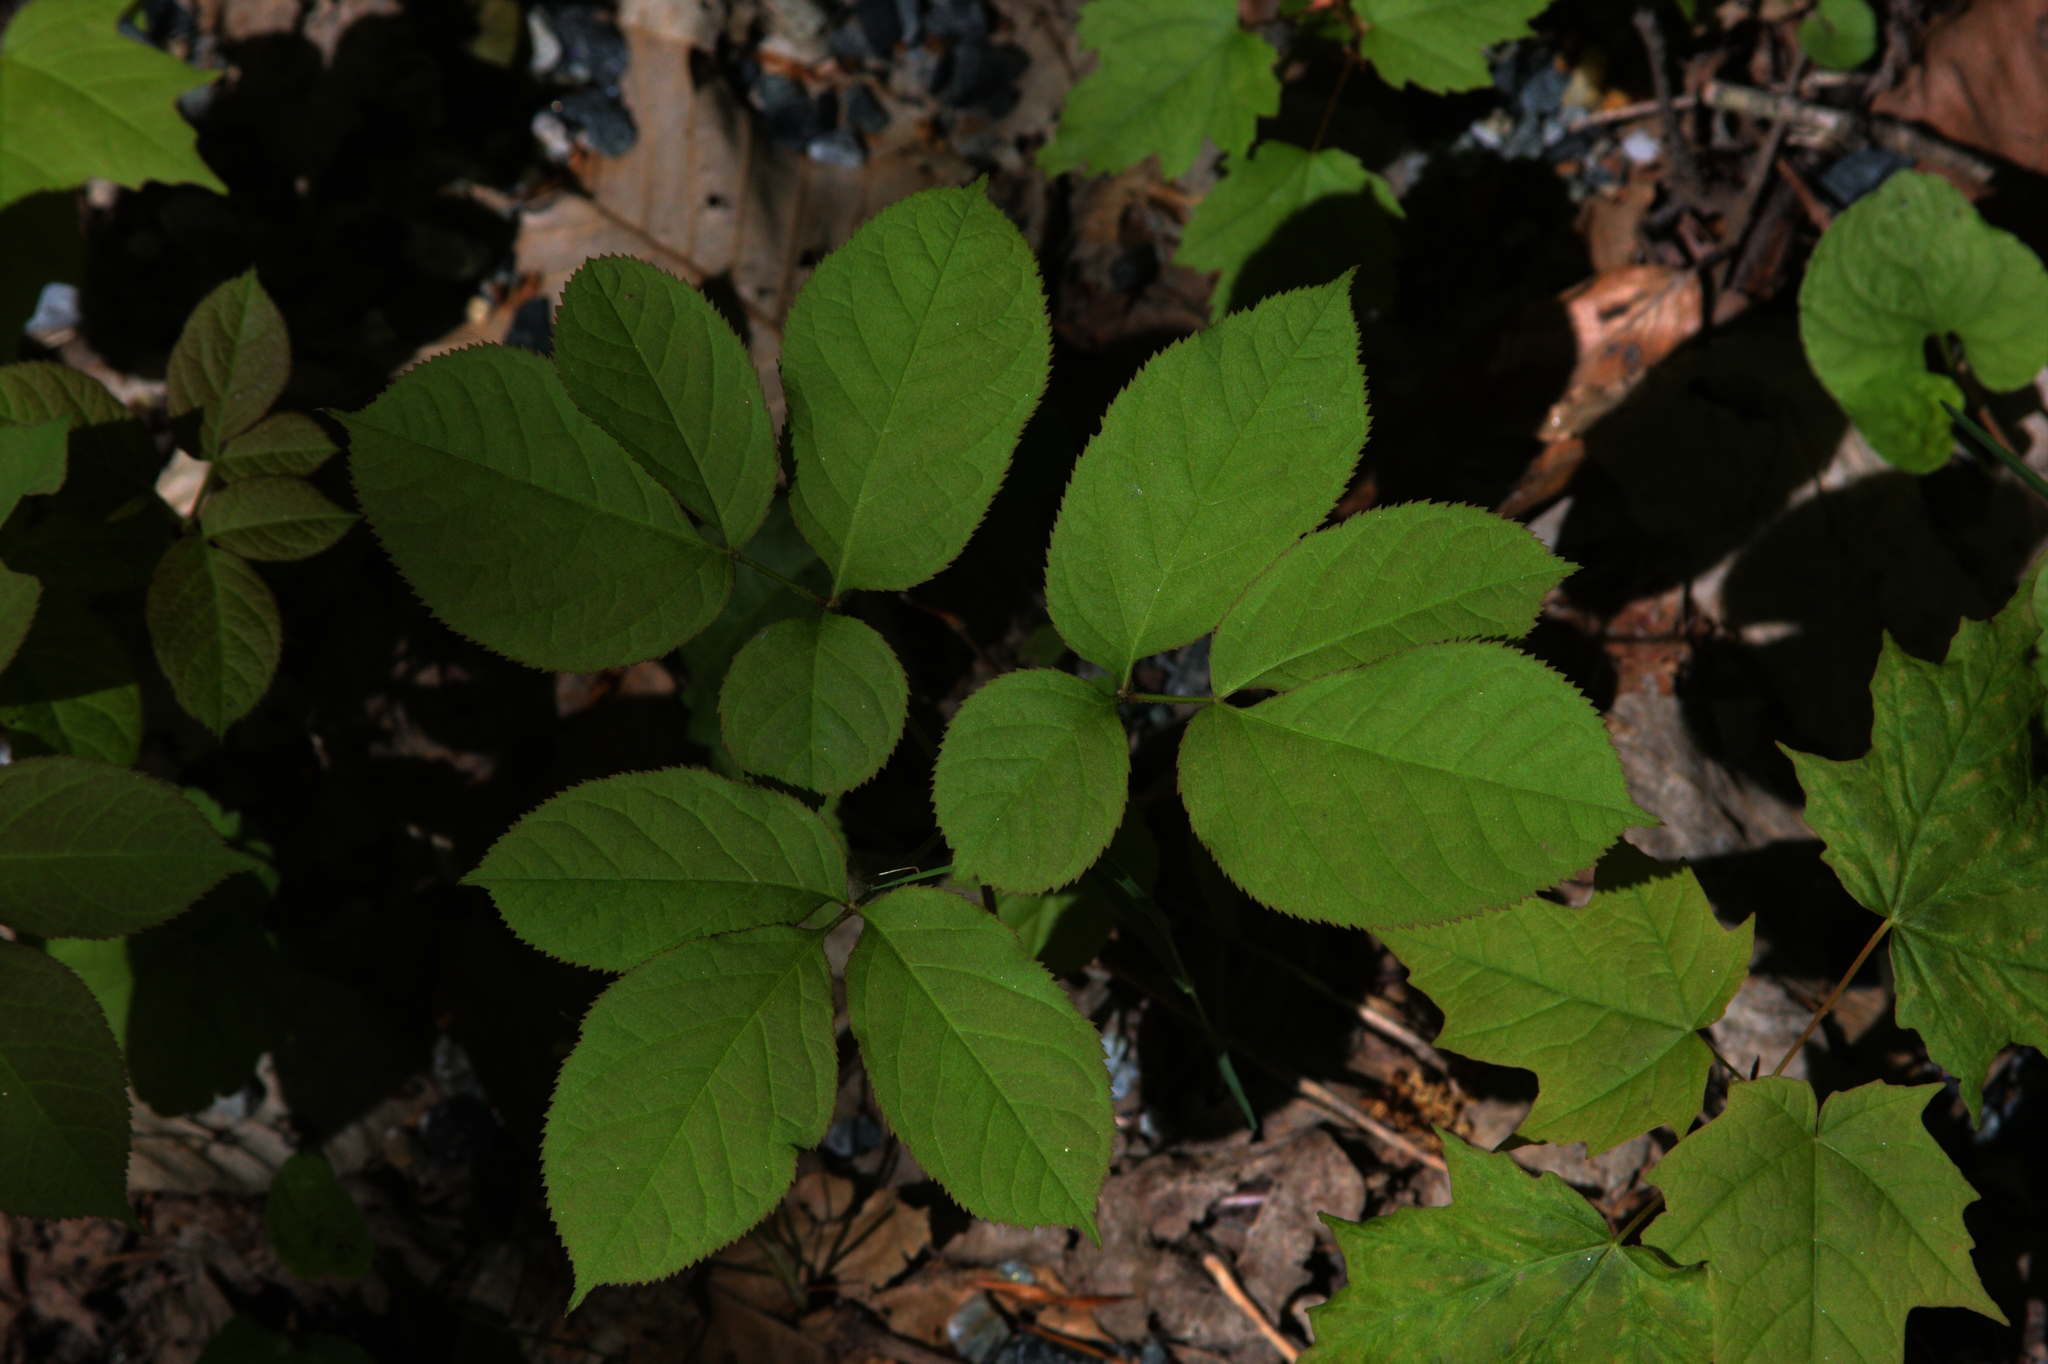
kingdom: Plantae
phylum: Tracheophyta
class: Magnoliopsida
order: Apiales
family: Araliaceae
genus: Aralia
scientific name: Aralia nudicaulis
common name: Wild sarsaparilla
